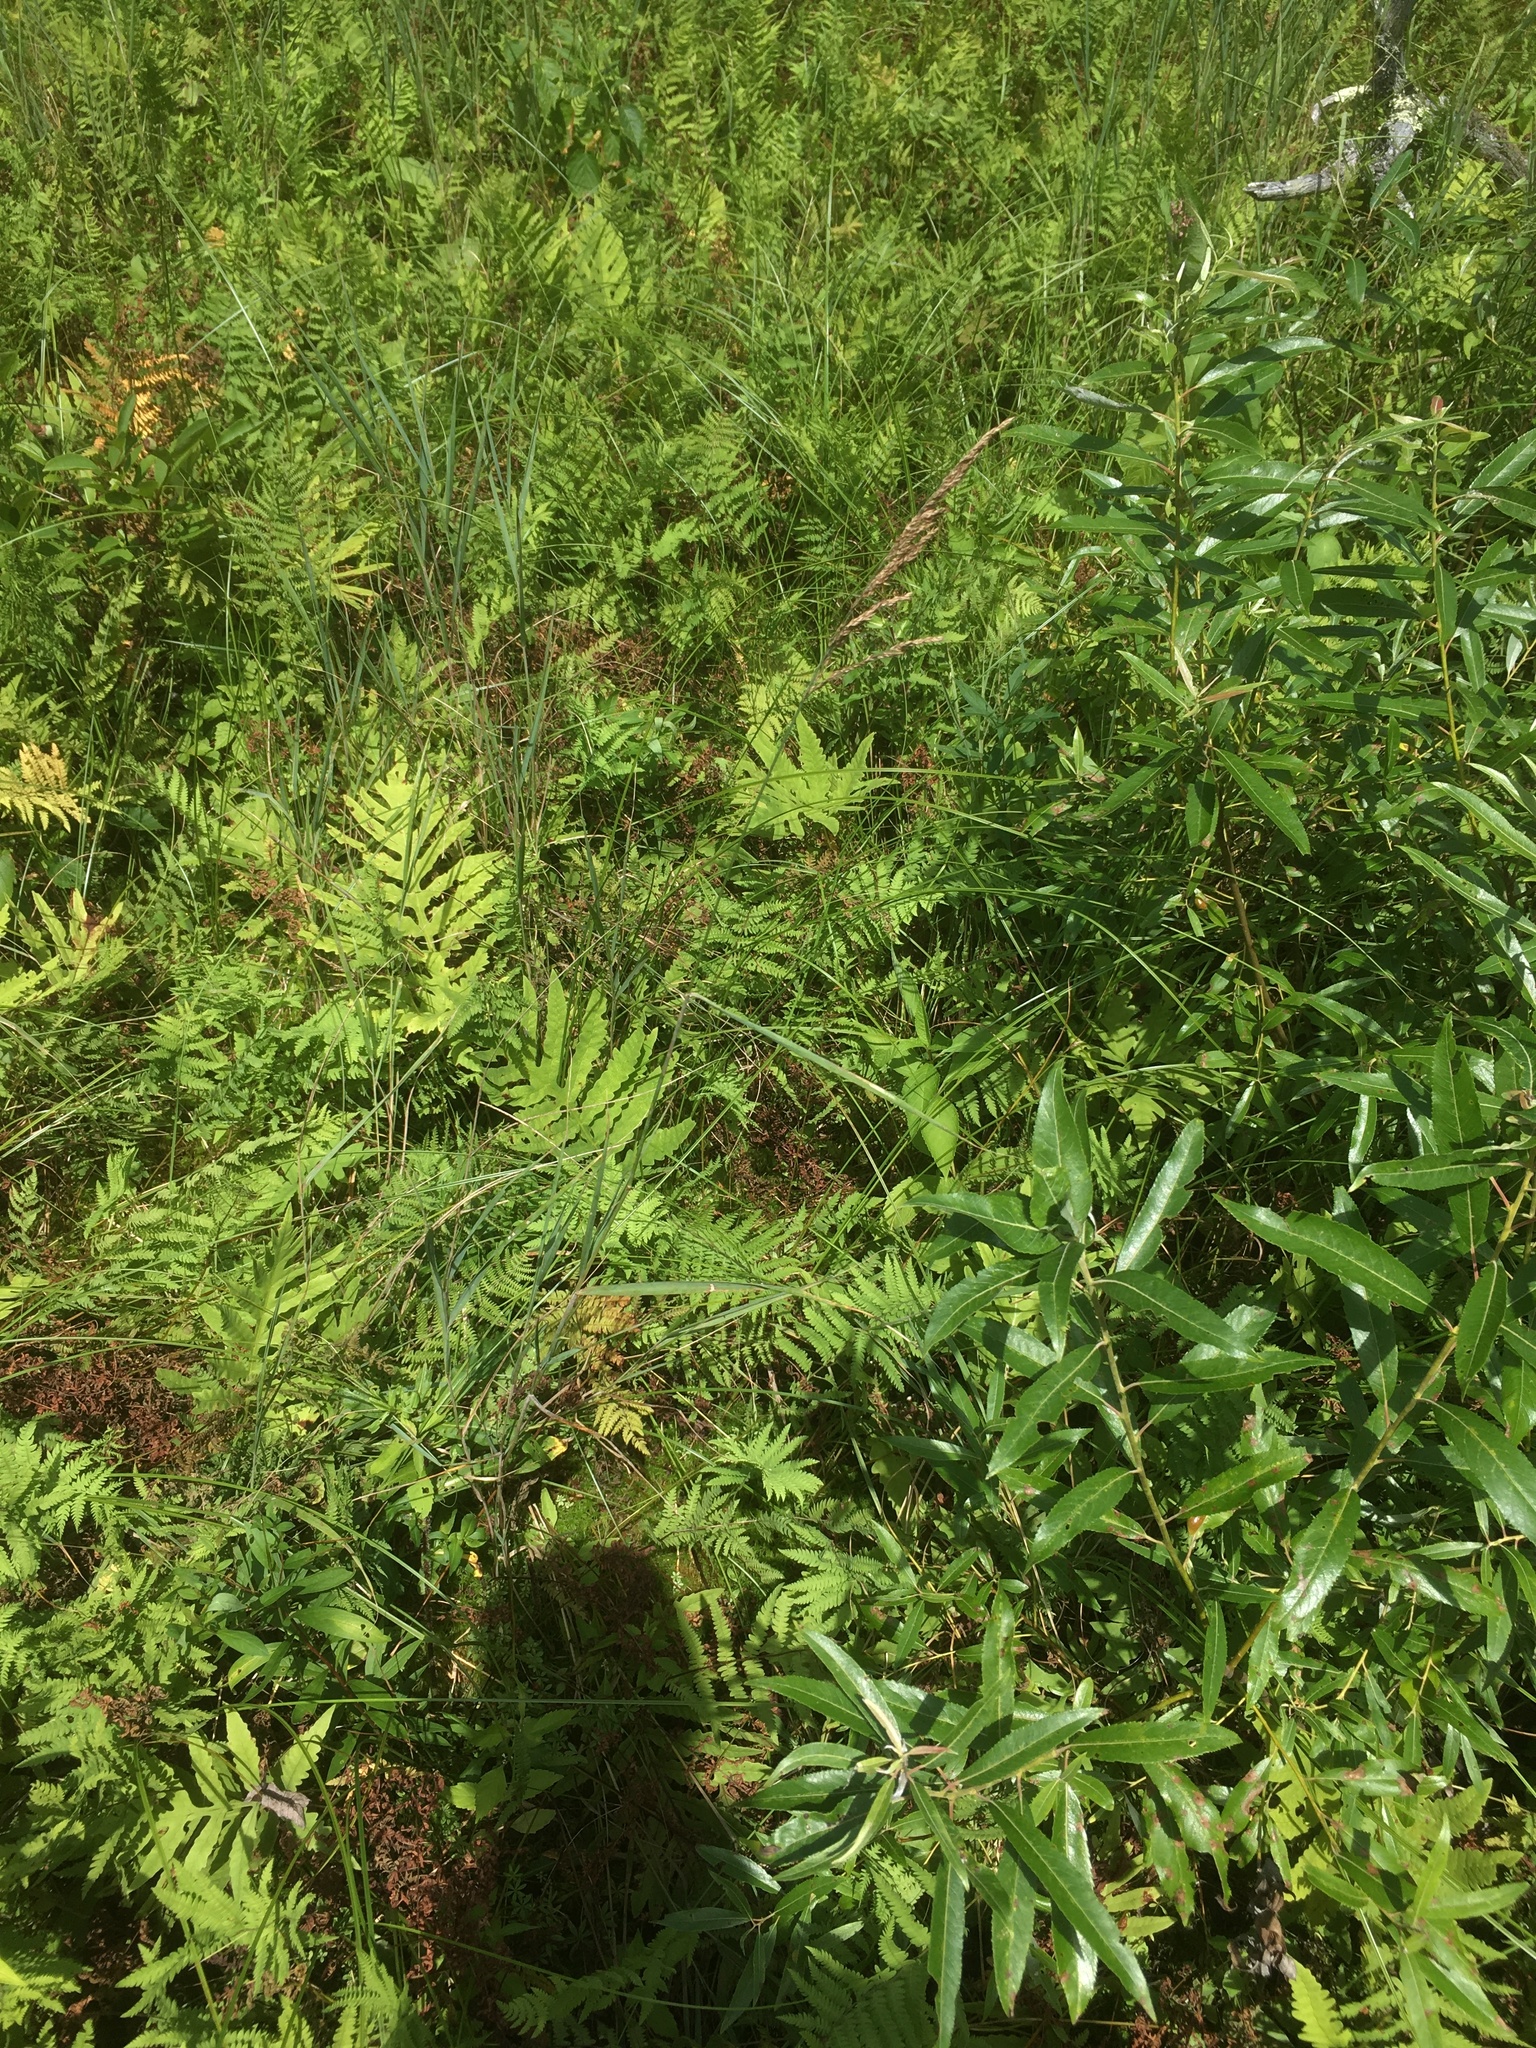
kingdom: Plantae
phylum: Tracheophyta
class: Liliopsida
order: Poales
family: Poaceae
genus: Calamagrostis
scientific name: Calamagrostis canadensis
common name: Canada bluejoint
